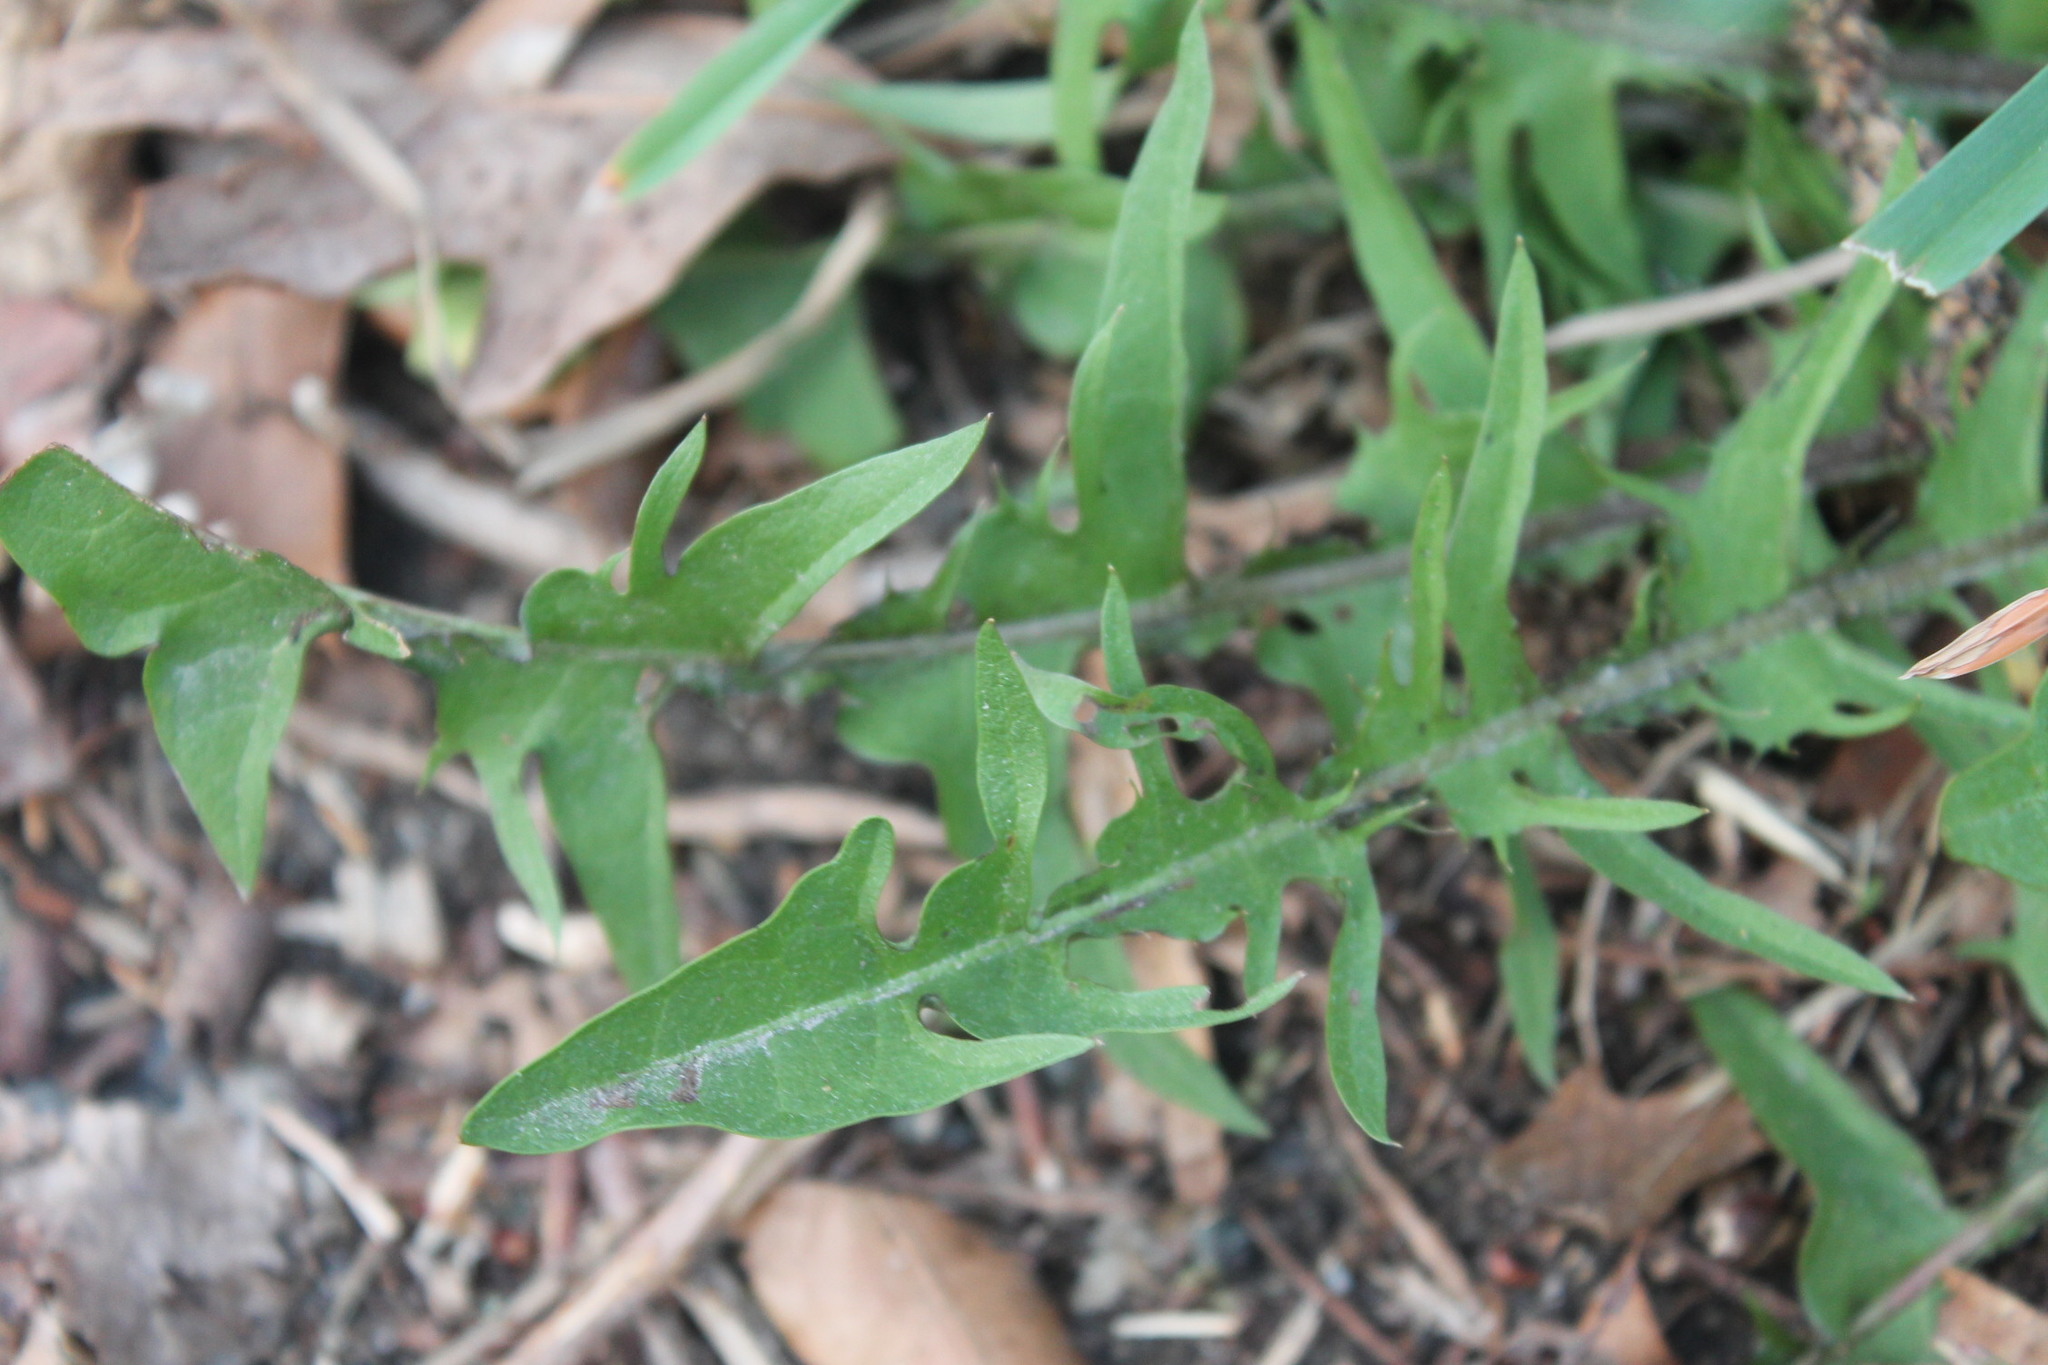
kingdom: Plantae
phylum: Tracheophyta
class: Magnoliopsida
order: Asterales
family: Asteraceae
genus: Taraxacum
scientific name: Taraxacum erythrospermum
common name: Rock dandelion
